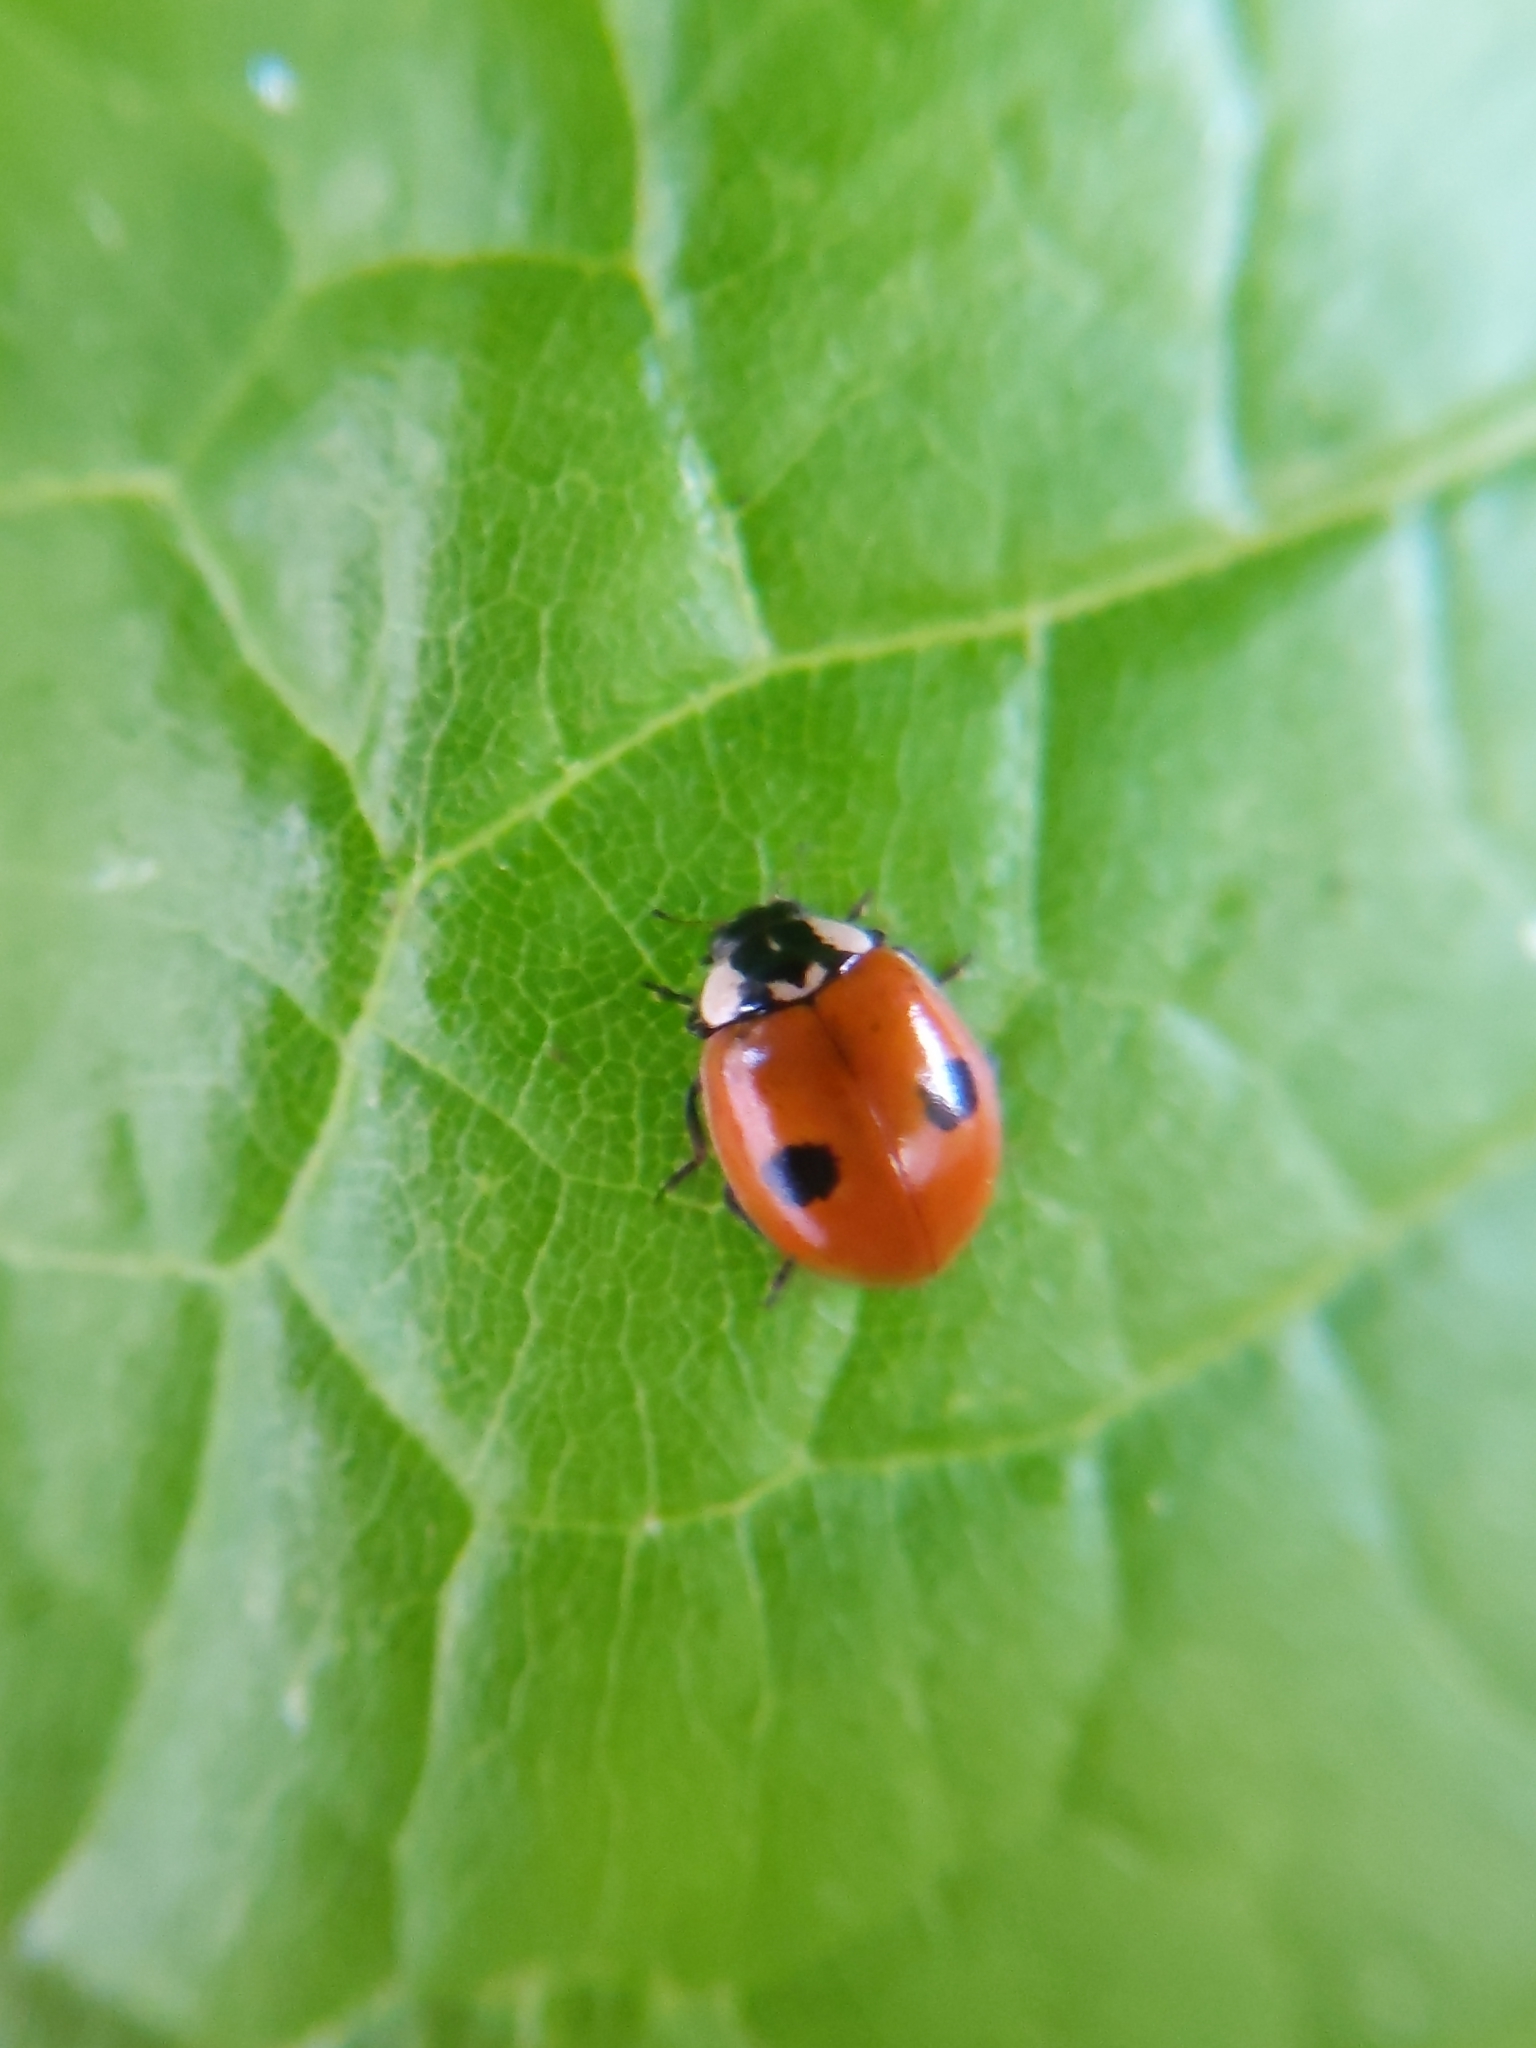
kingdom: Animalia
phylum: Arthropoda
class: Insecta
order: Coleoptera
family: Coccinellidae
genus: Adalia
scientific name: Adalia bipunctata
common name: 2-spot ladybird
